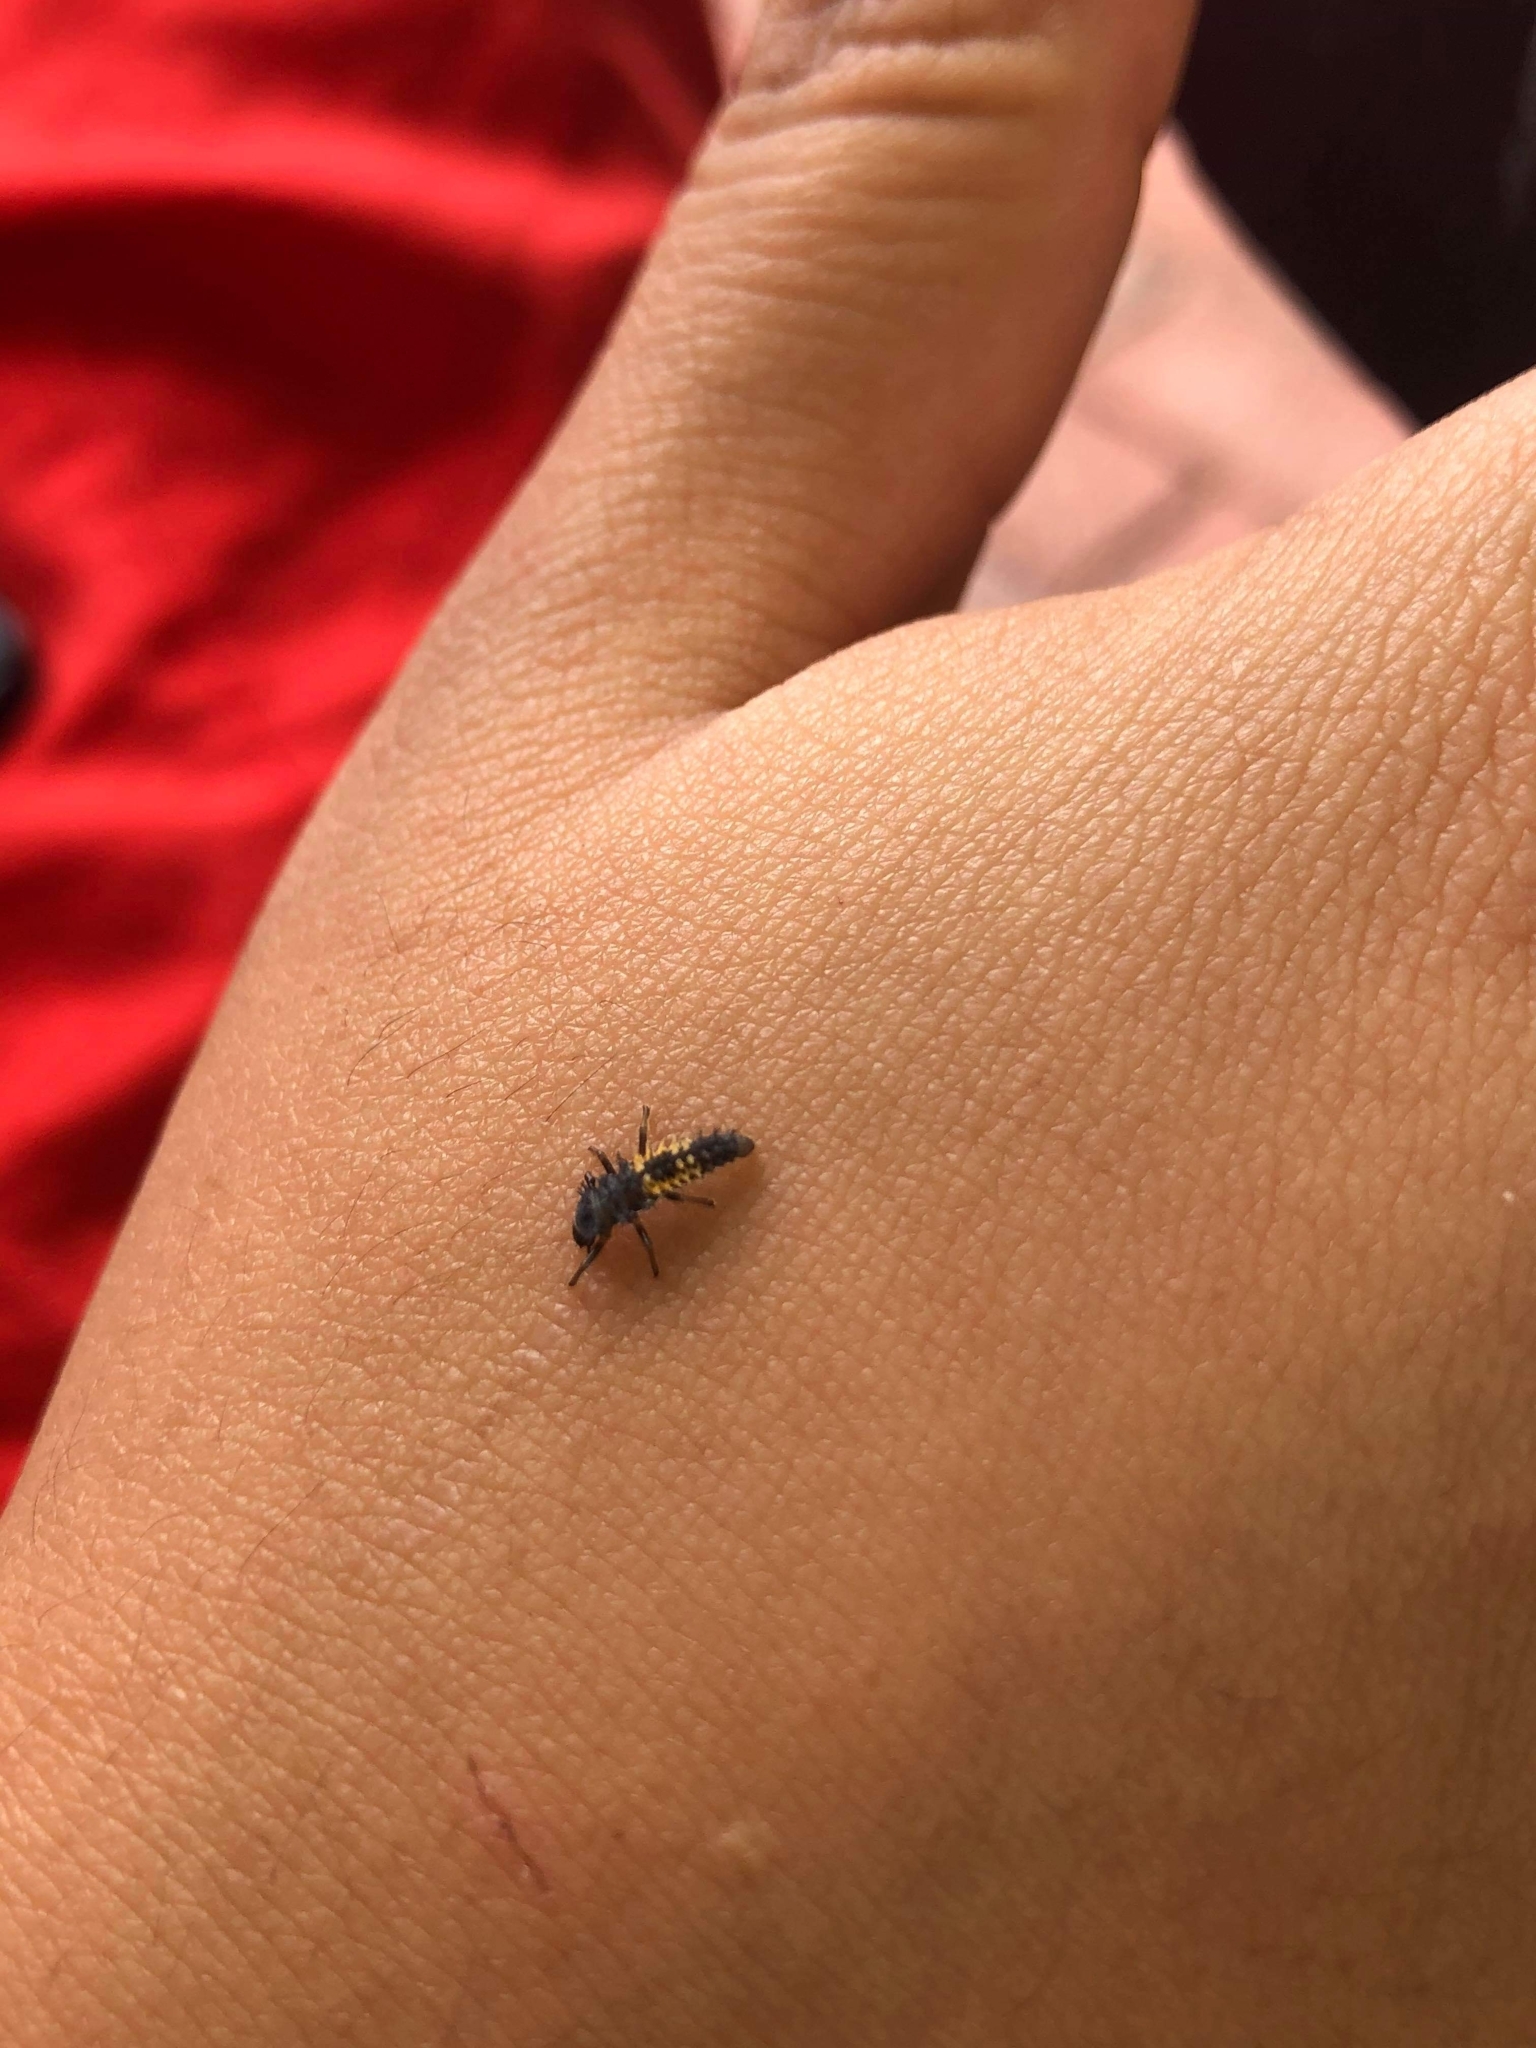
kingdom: Animalia
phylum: Arthropoda
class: Insecta
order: Coleoptera
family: Coccinellidae
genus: Harmonia
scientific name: Harmonia axyridis
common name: Harlequin ladybird
